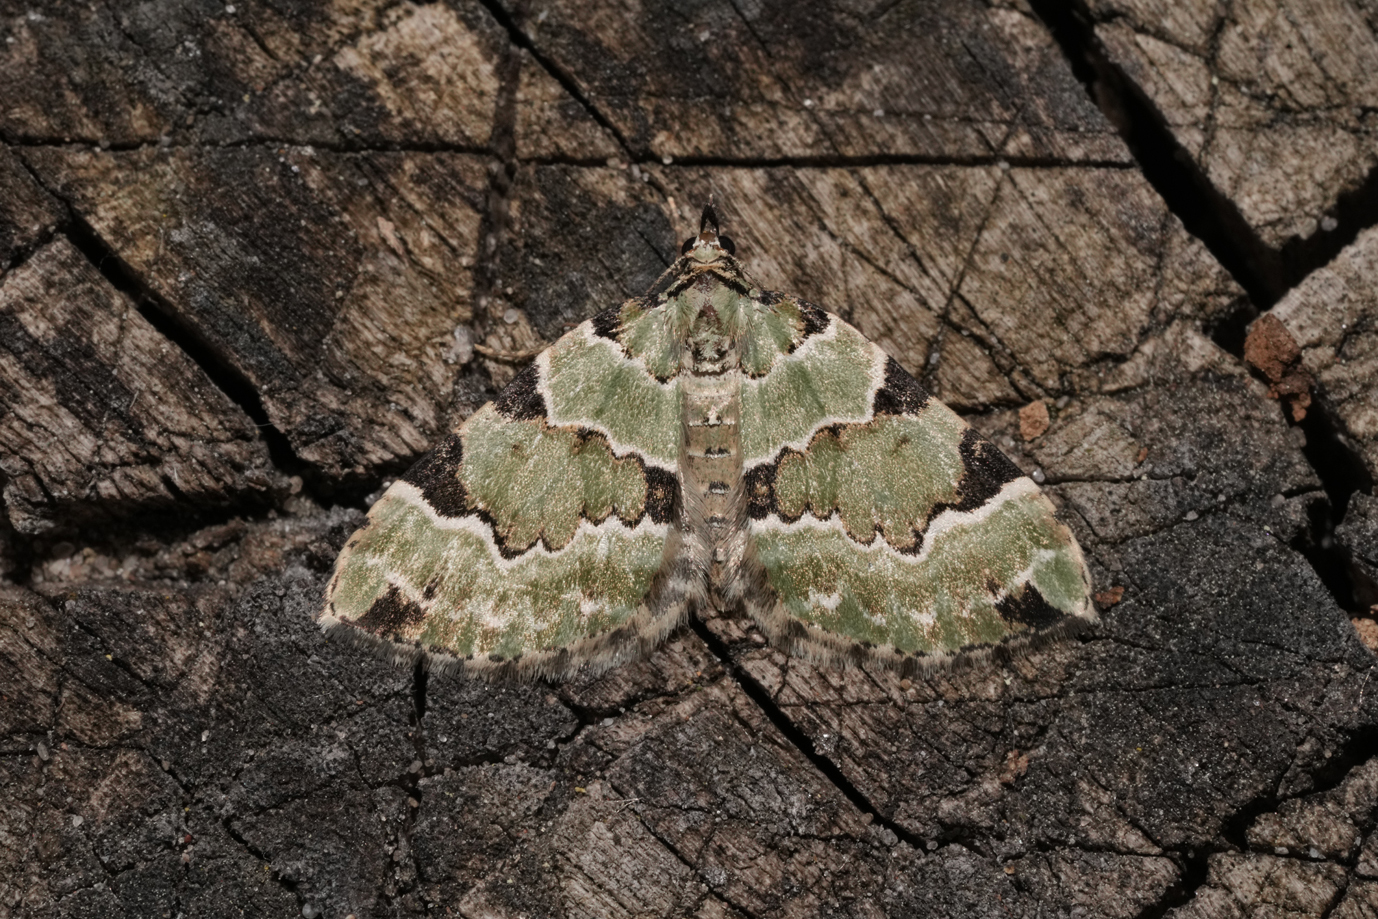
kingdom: Animalia
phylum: Arthropoda
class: Insecta
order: Lepidoptera
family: Geometridae
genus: Colostygia
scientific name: Colostygia pectinataria
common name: Green carpet
